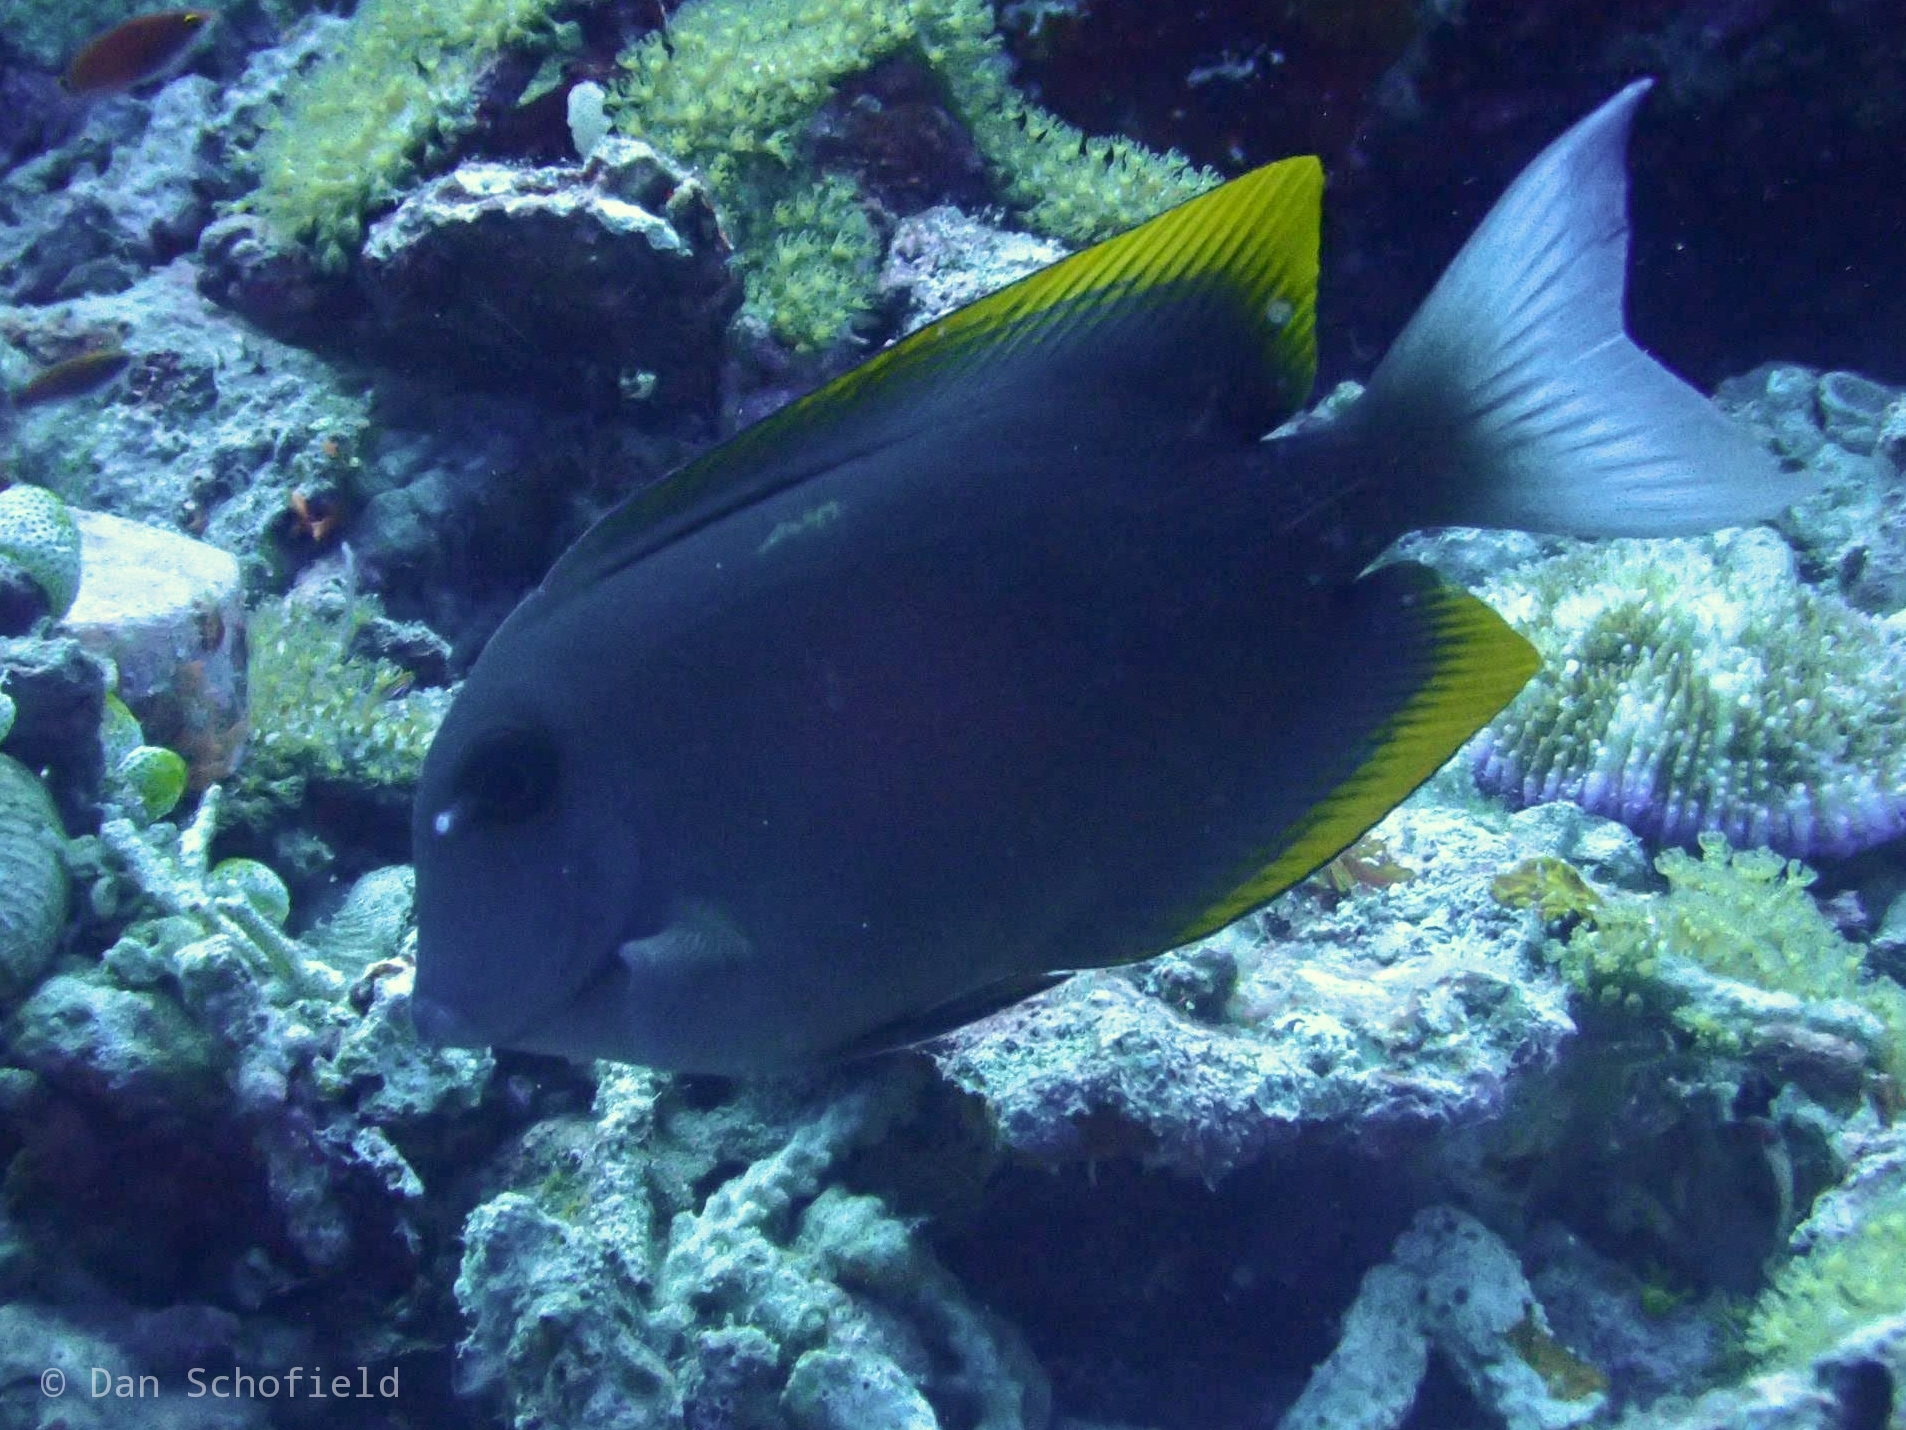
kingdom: Animalia
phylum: Chordata
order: Perciformes
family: Acanthuridae
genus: Ctenochaetus
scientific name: Ctenochaetus tominiensis
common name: Orange-tipped bristletooth
